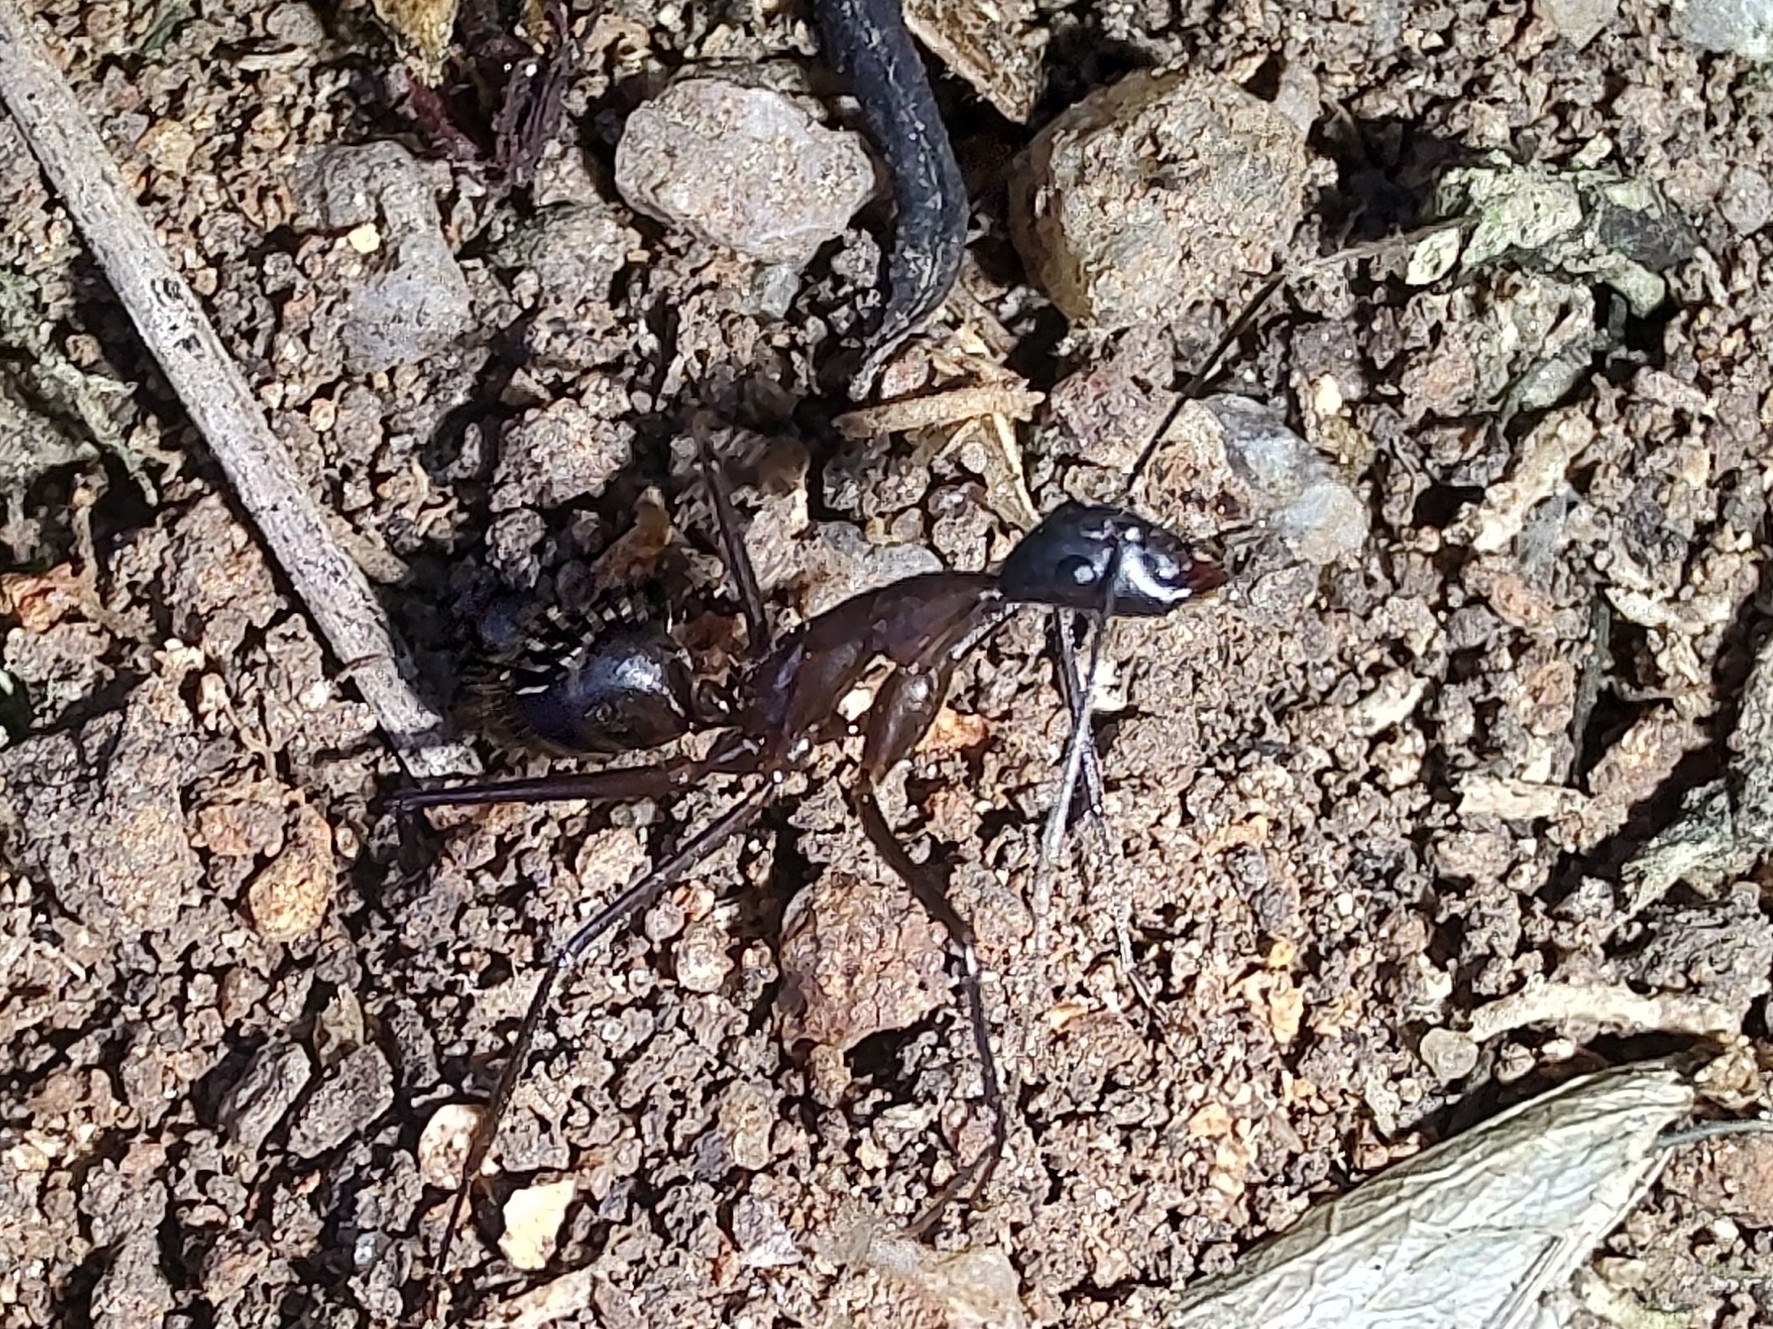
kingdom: Animalia
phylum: Arthropoda
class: Insecta
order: Hymenoptera
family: Formicidae
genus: Camponotus
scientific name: Camponotus lespesii
